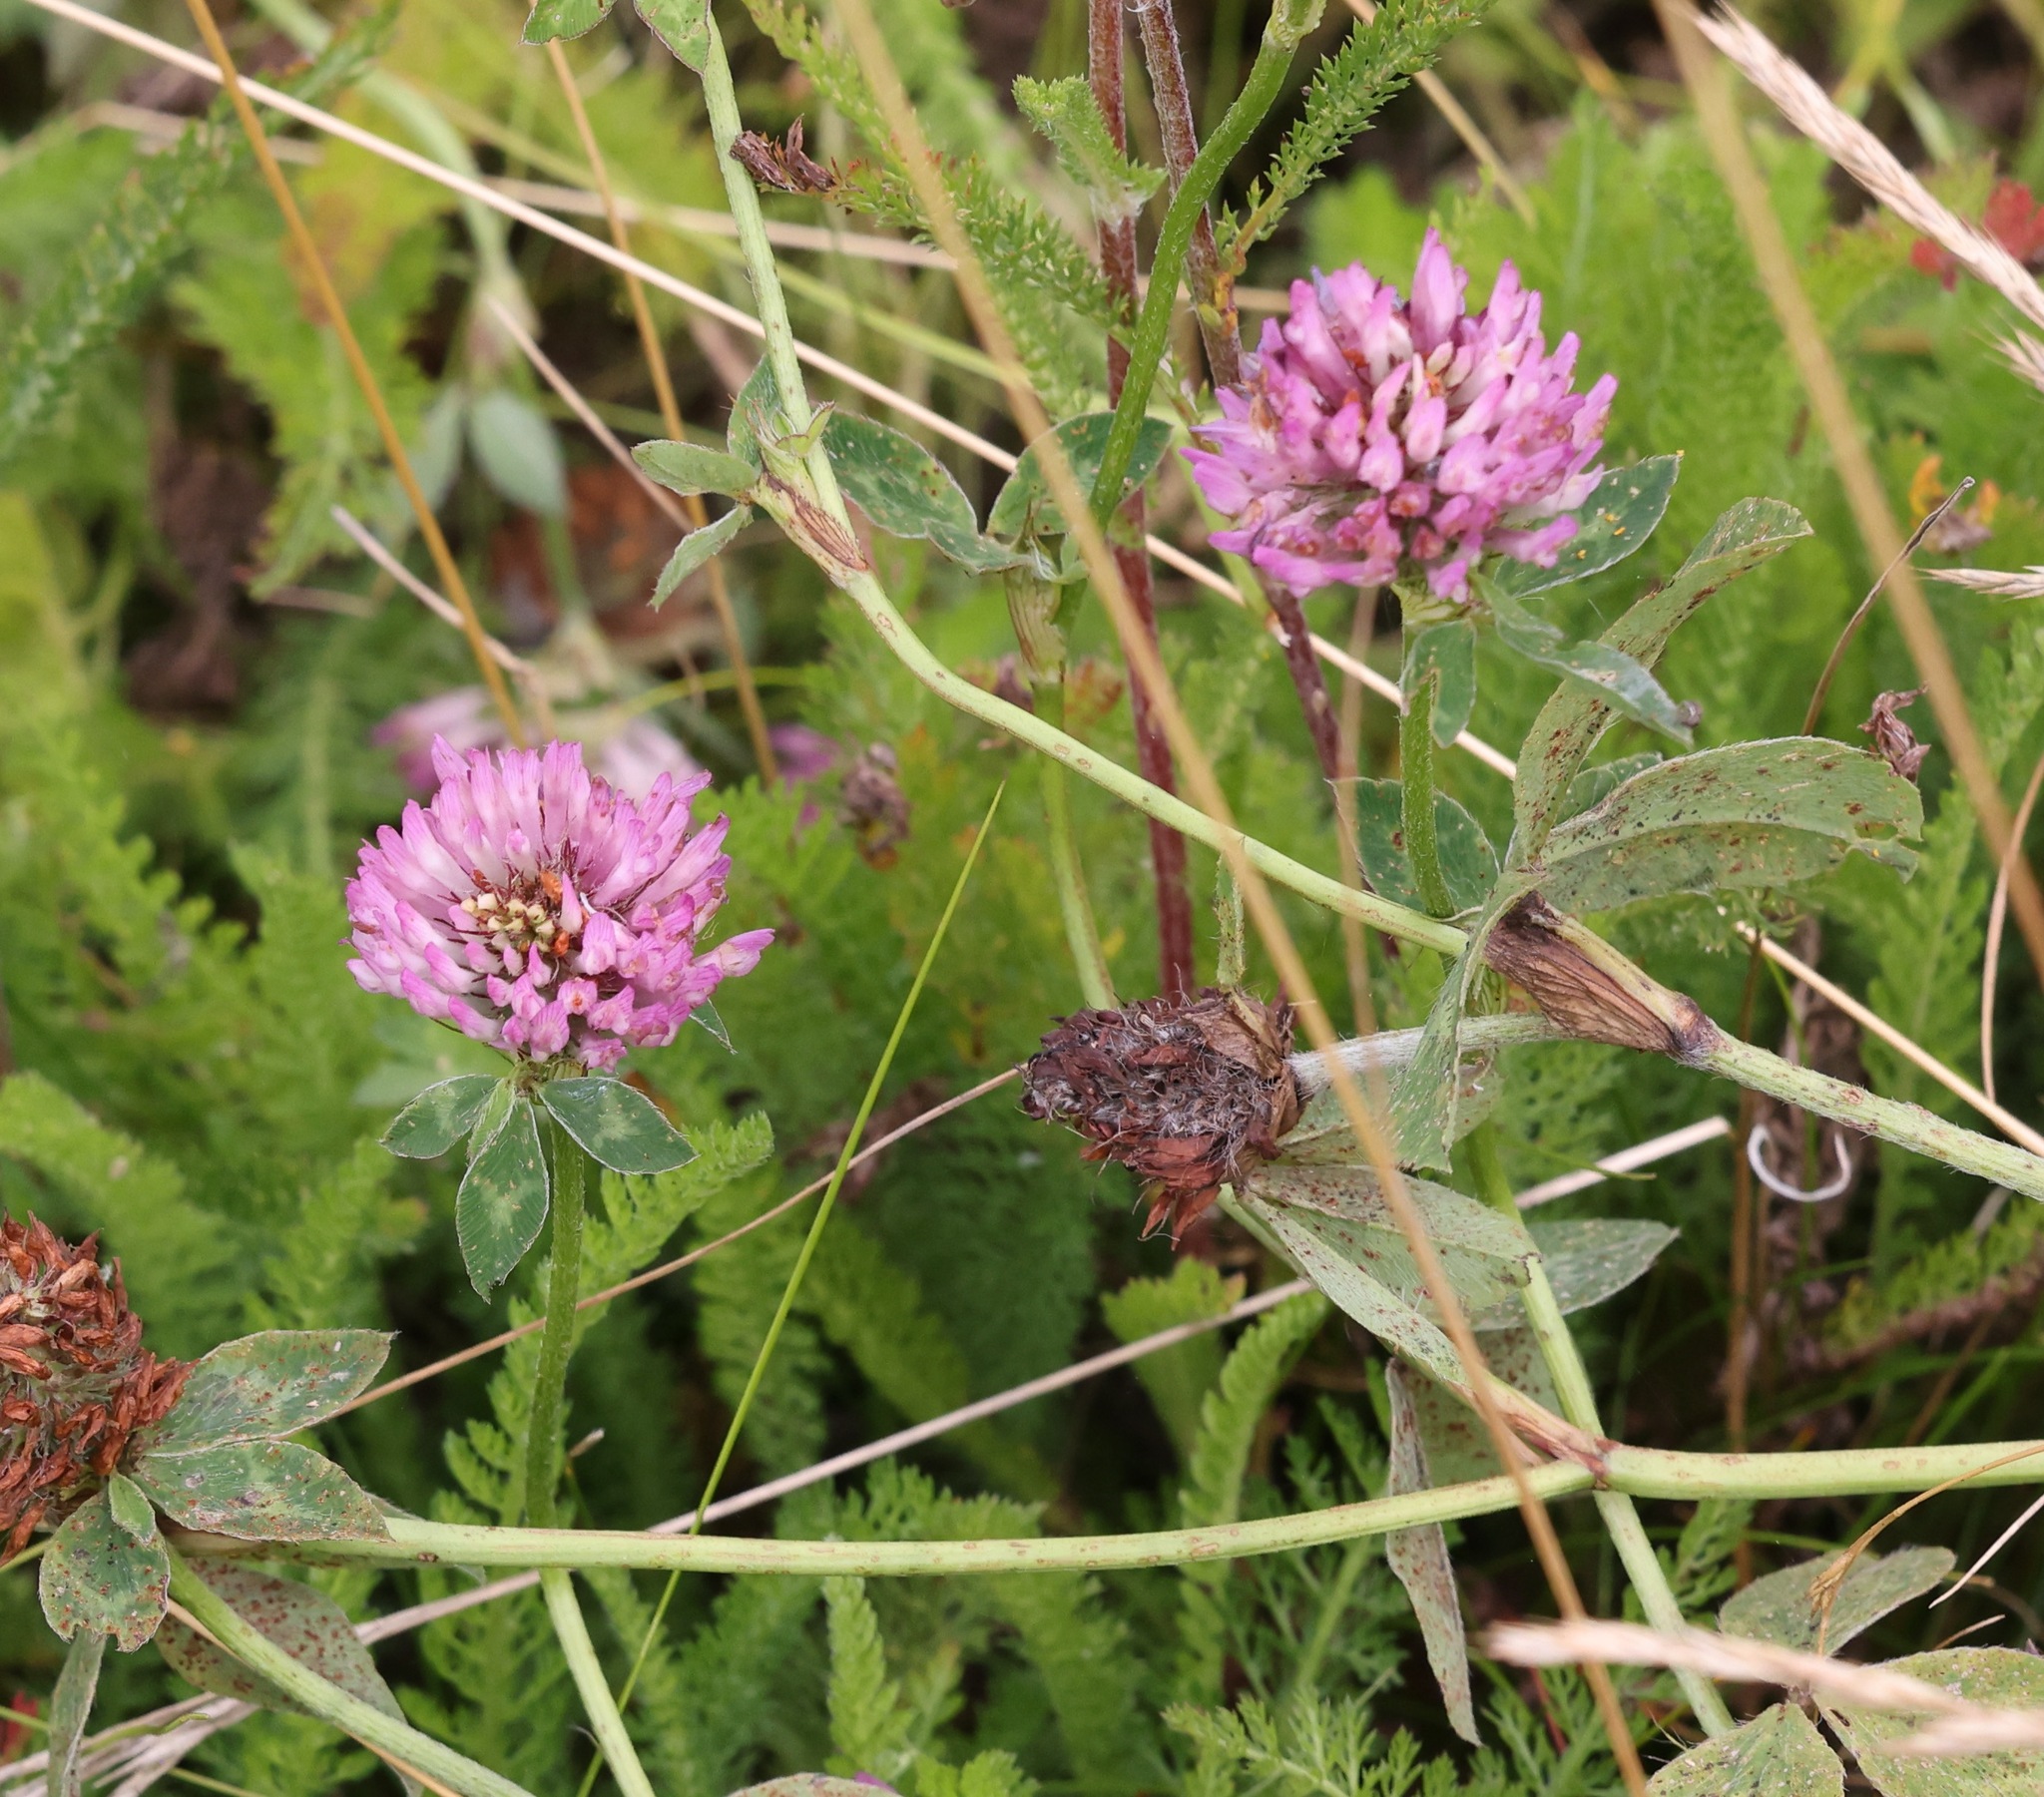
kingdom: Plantae
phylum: Tracheophyta
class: Magnoliopsida
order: Fabales
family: Fabaceae
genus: Trifolium
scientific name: Trifolium pratense
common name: Red clover
